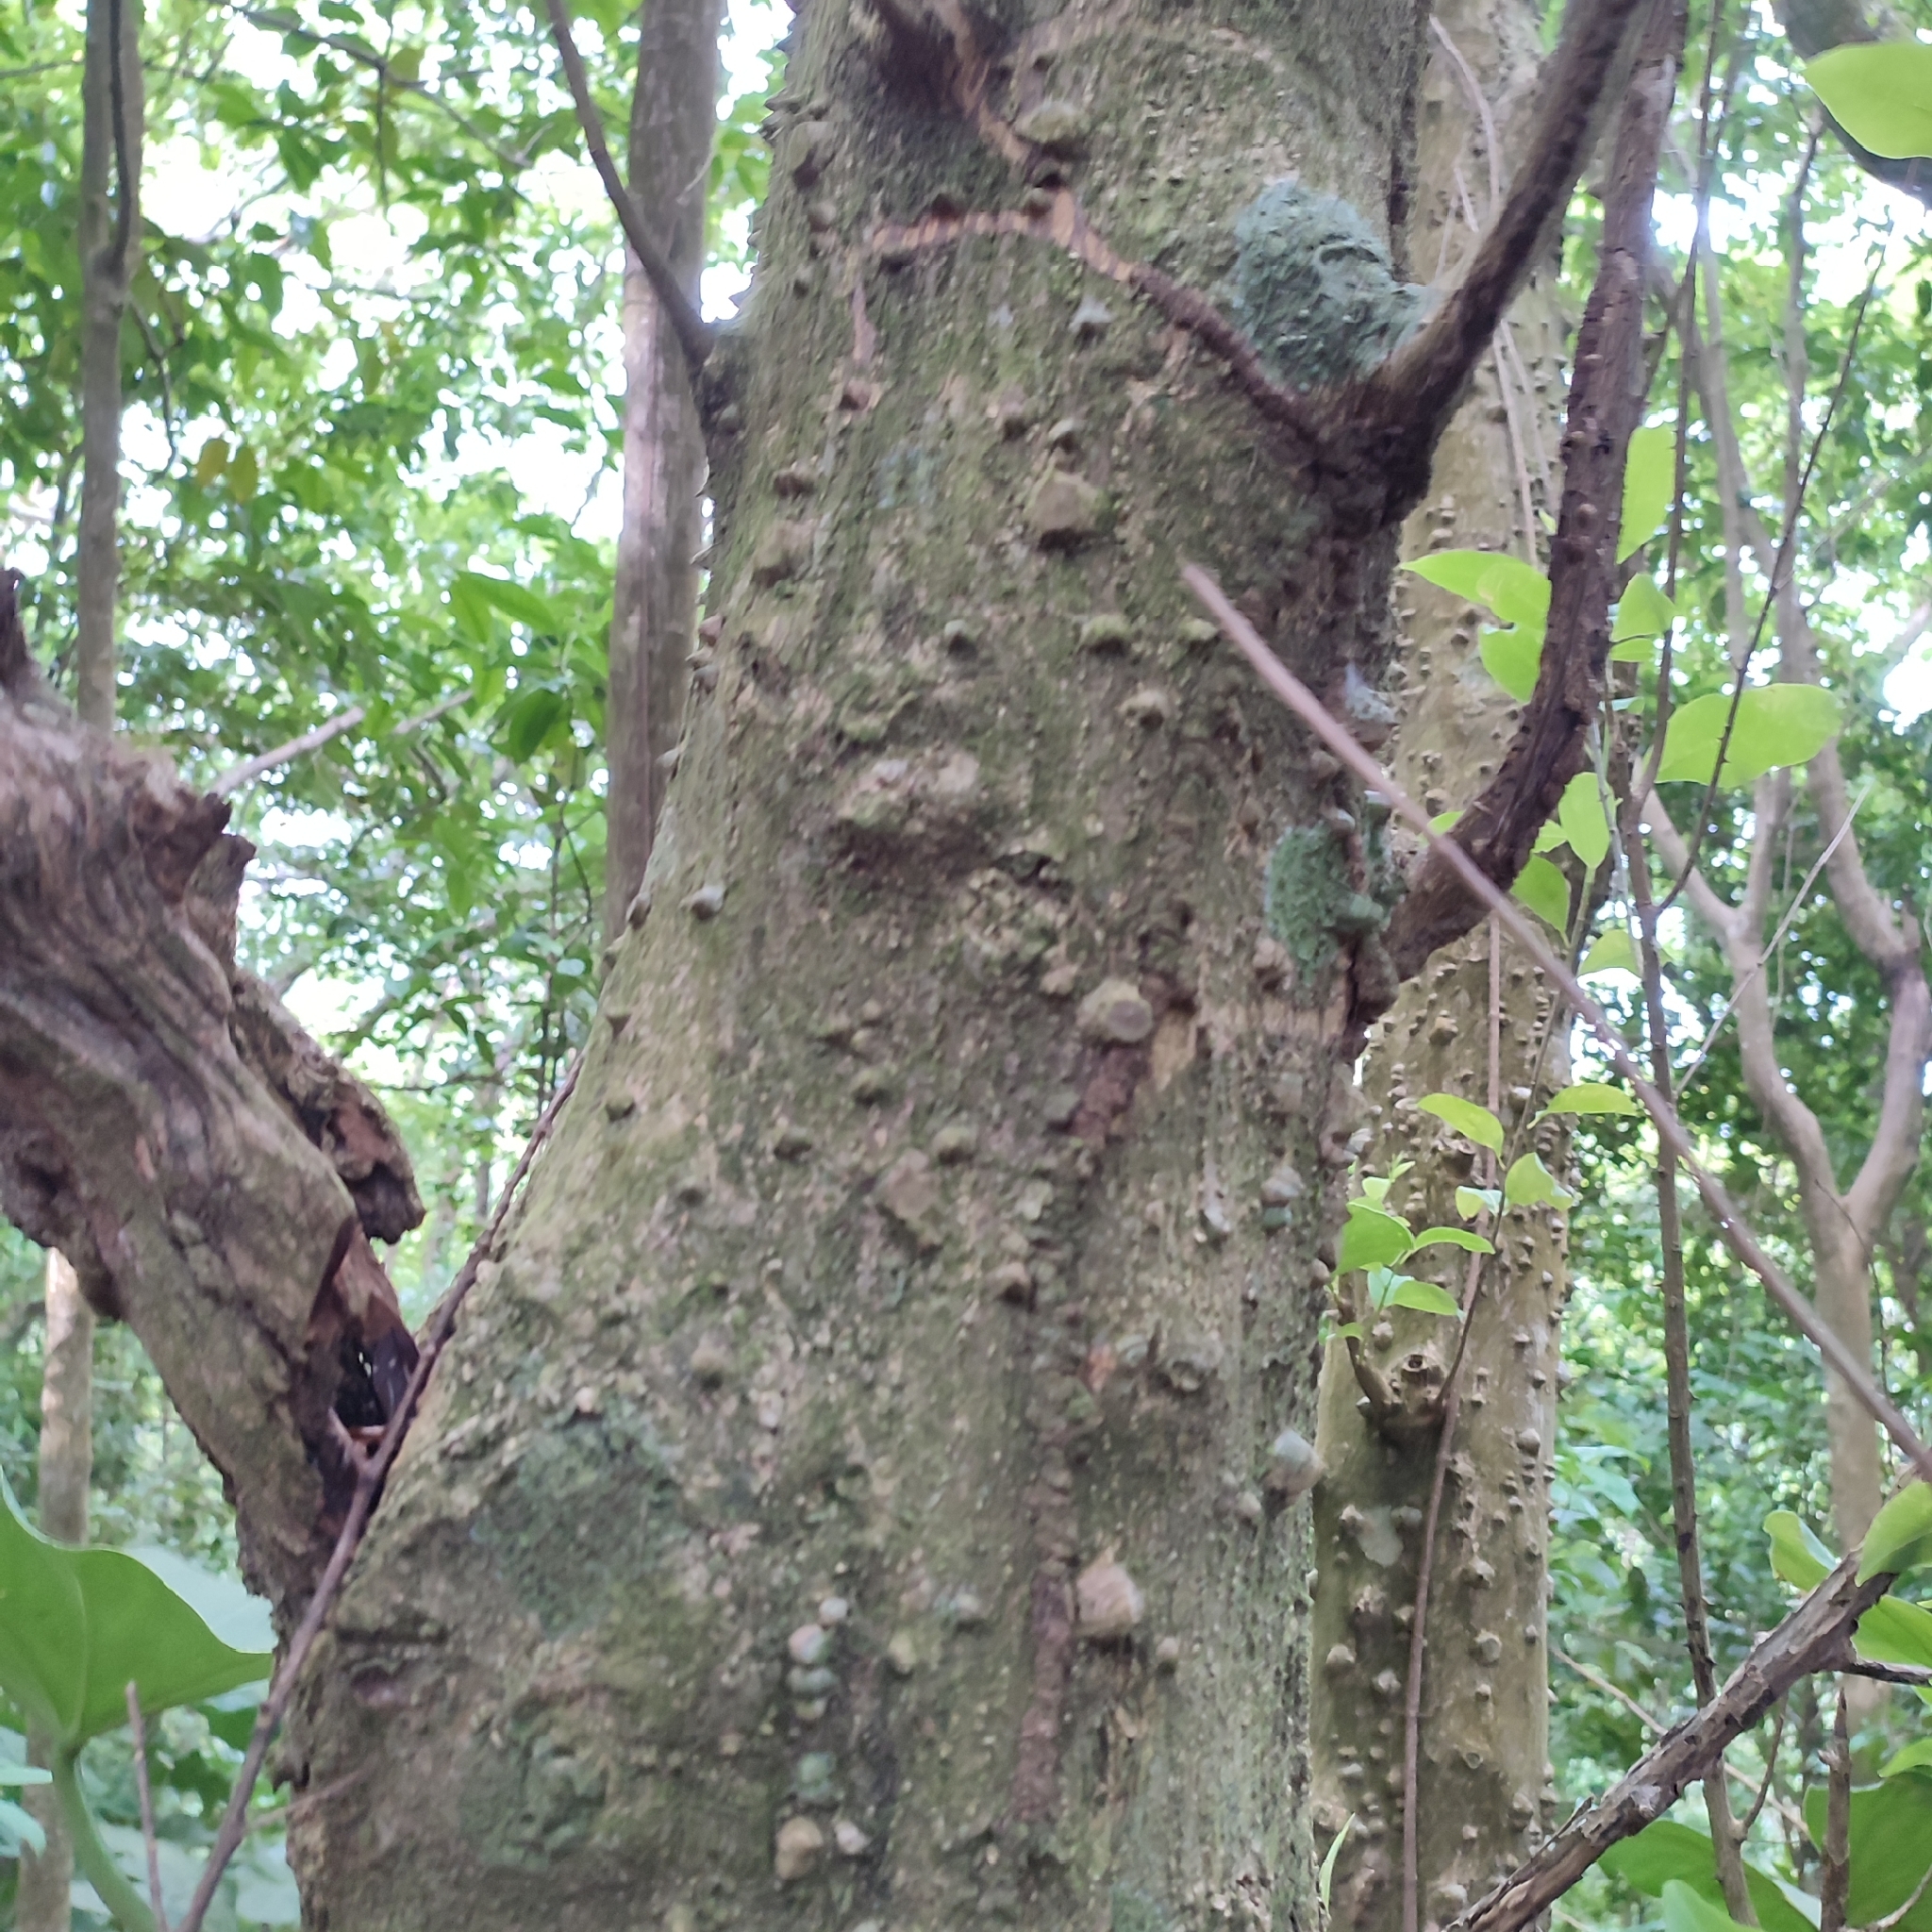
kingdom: Plantae
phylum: Tracheophyta
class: Magnoliopsida
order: Sapindales
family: Rutaceae
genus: Zanthoxylum
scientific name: Zanthoxylum schreberi
